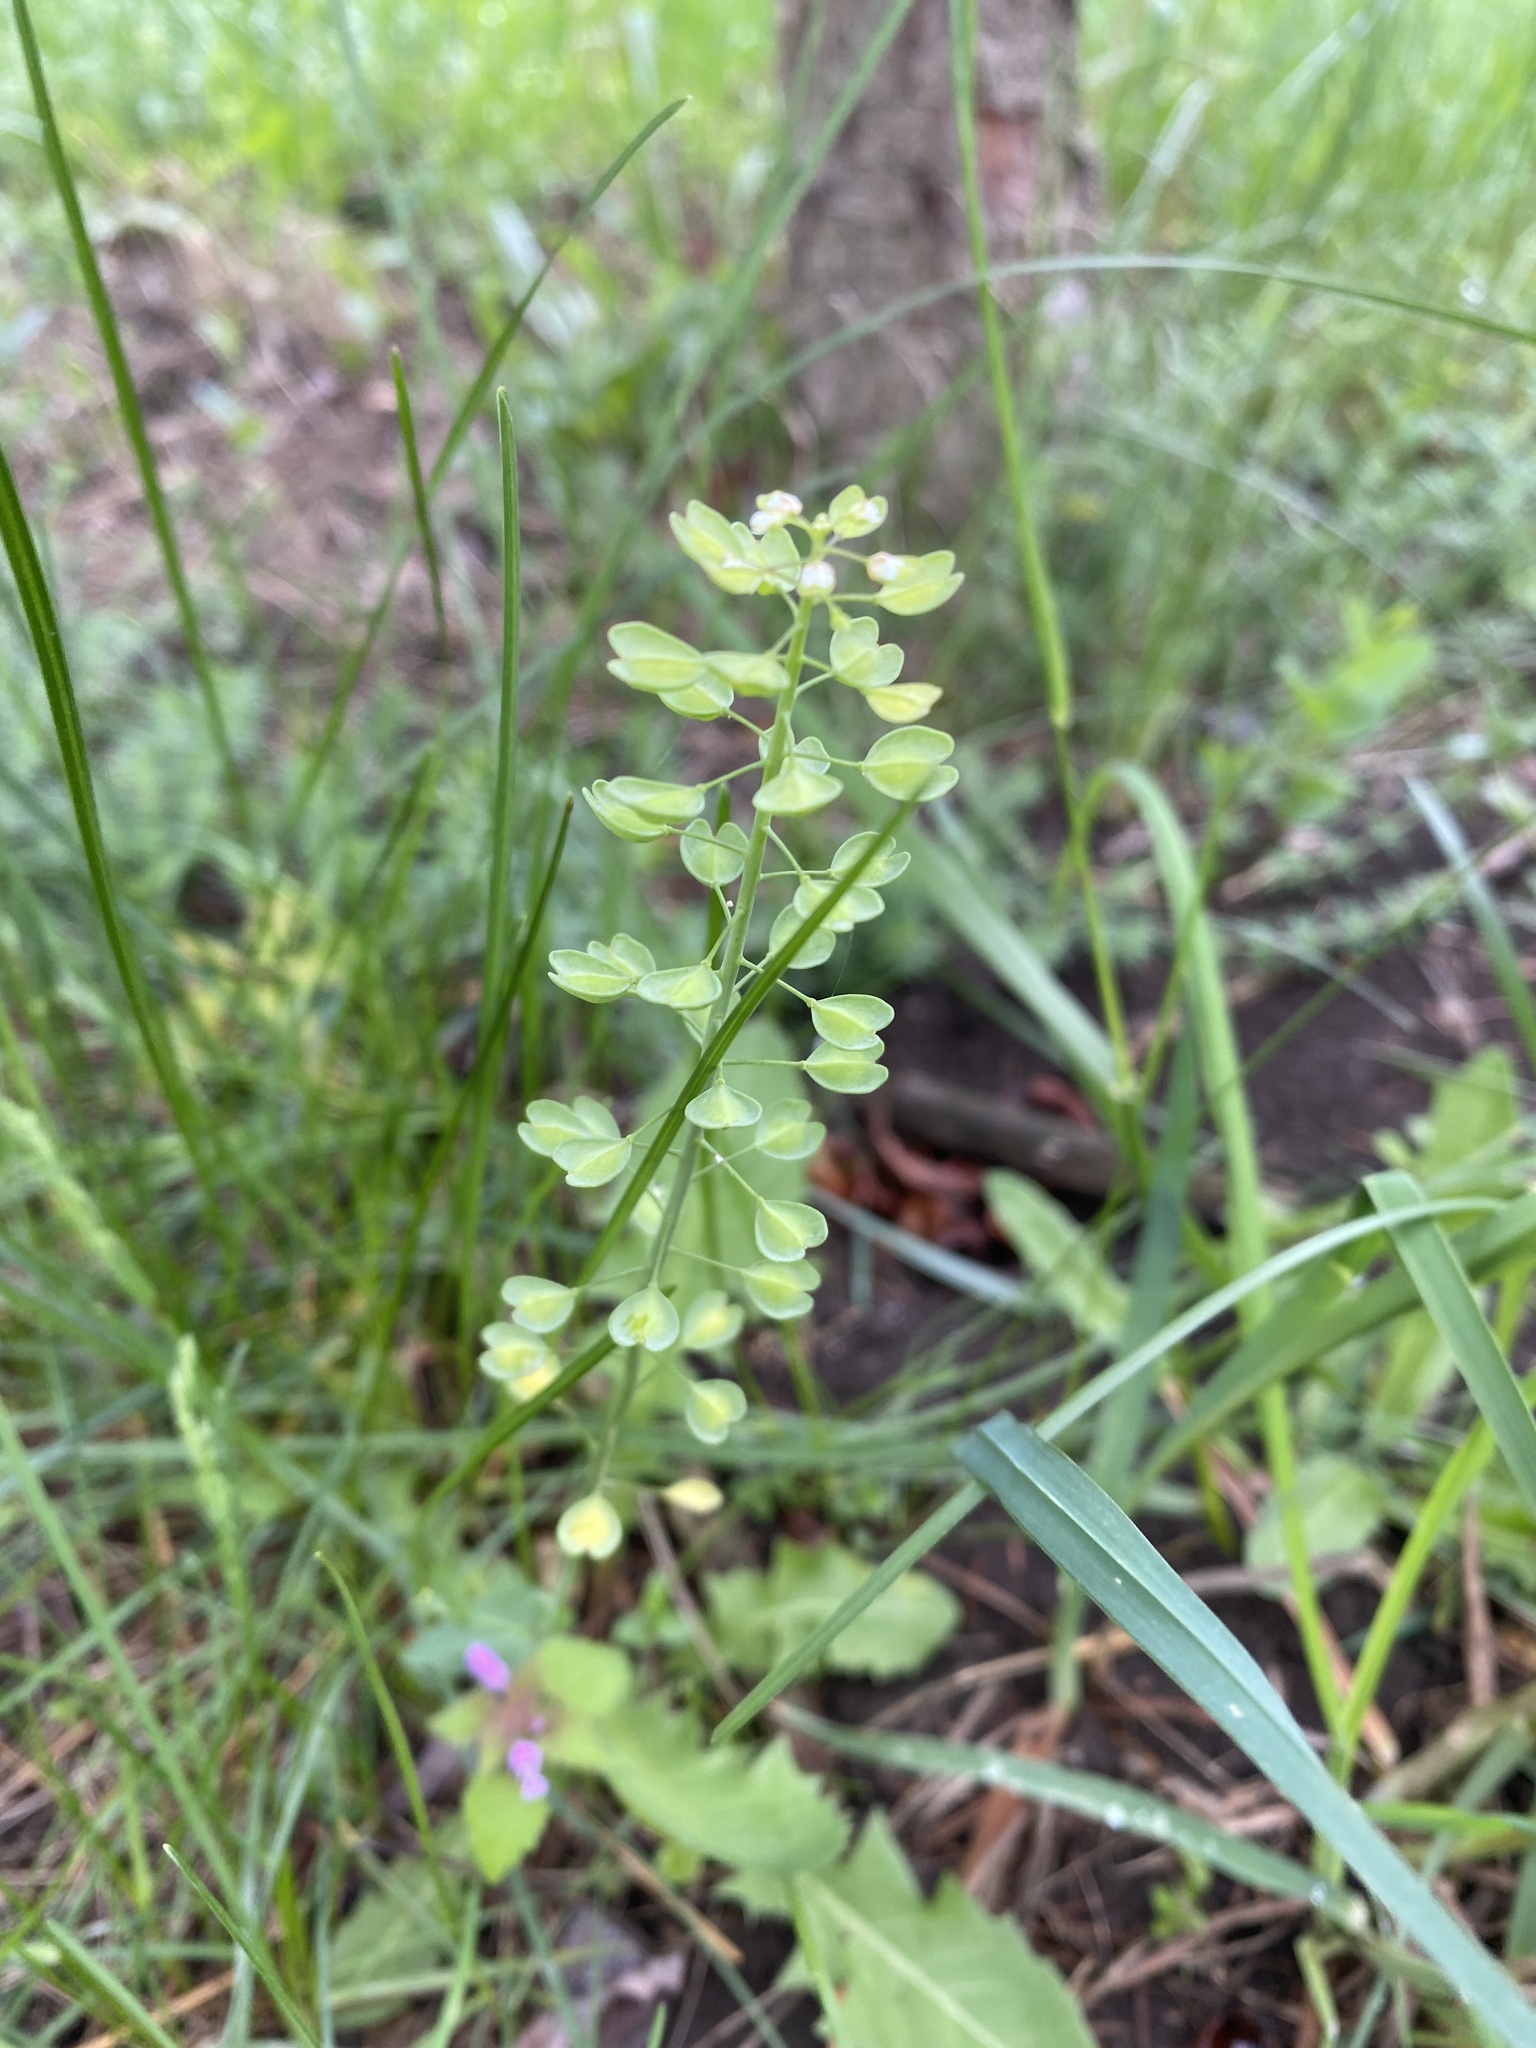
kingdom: Plantae
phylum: Tracheophyta
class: Magnoliopsida
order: Brassicales
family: Brassicaceae
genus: Noccaea
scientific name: Noccaea perfoliata
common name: Perfoliate pennycress
